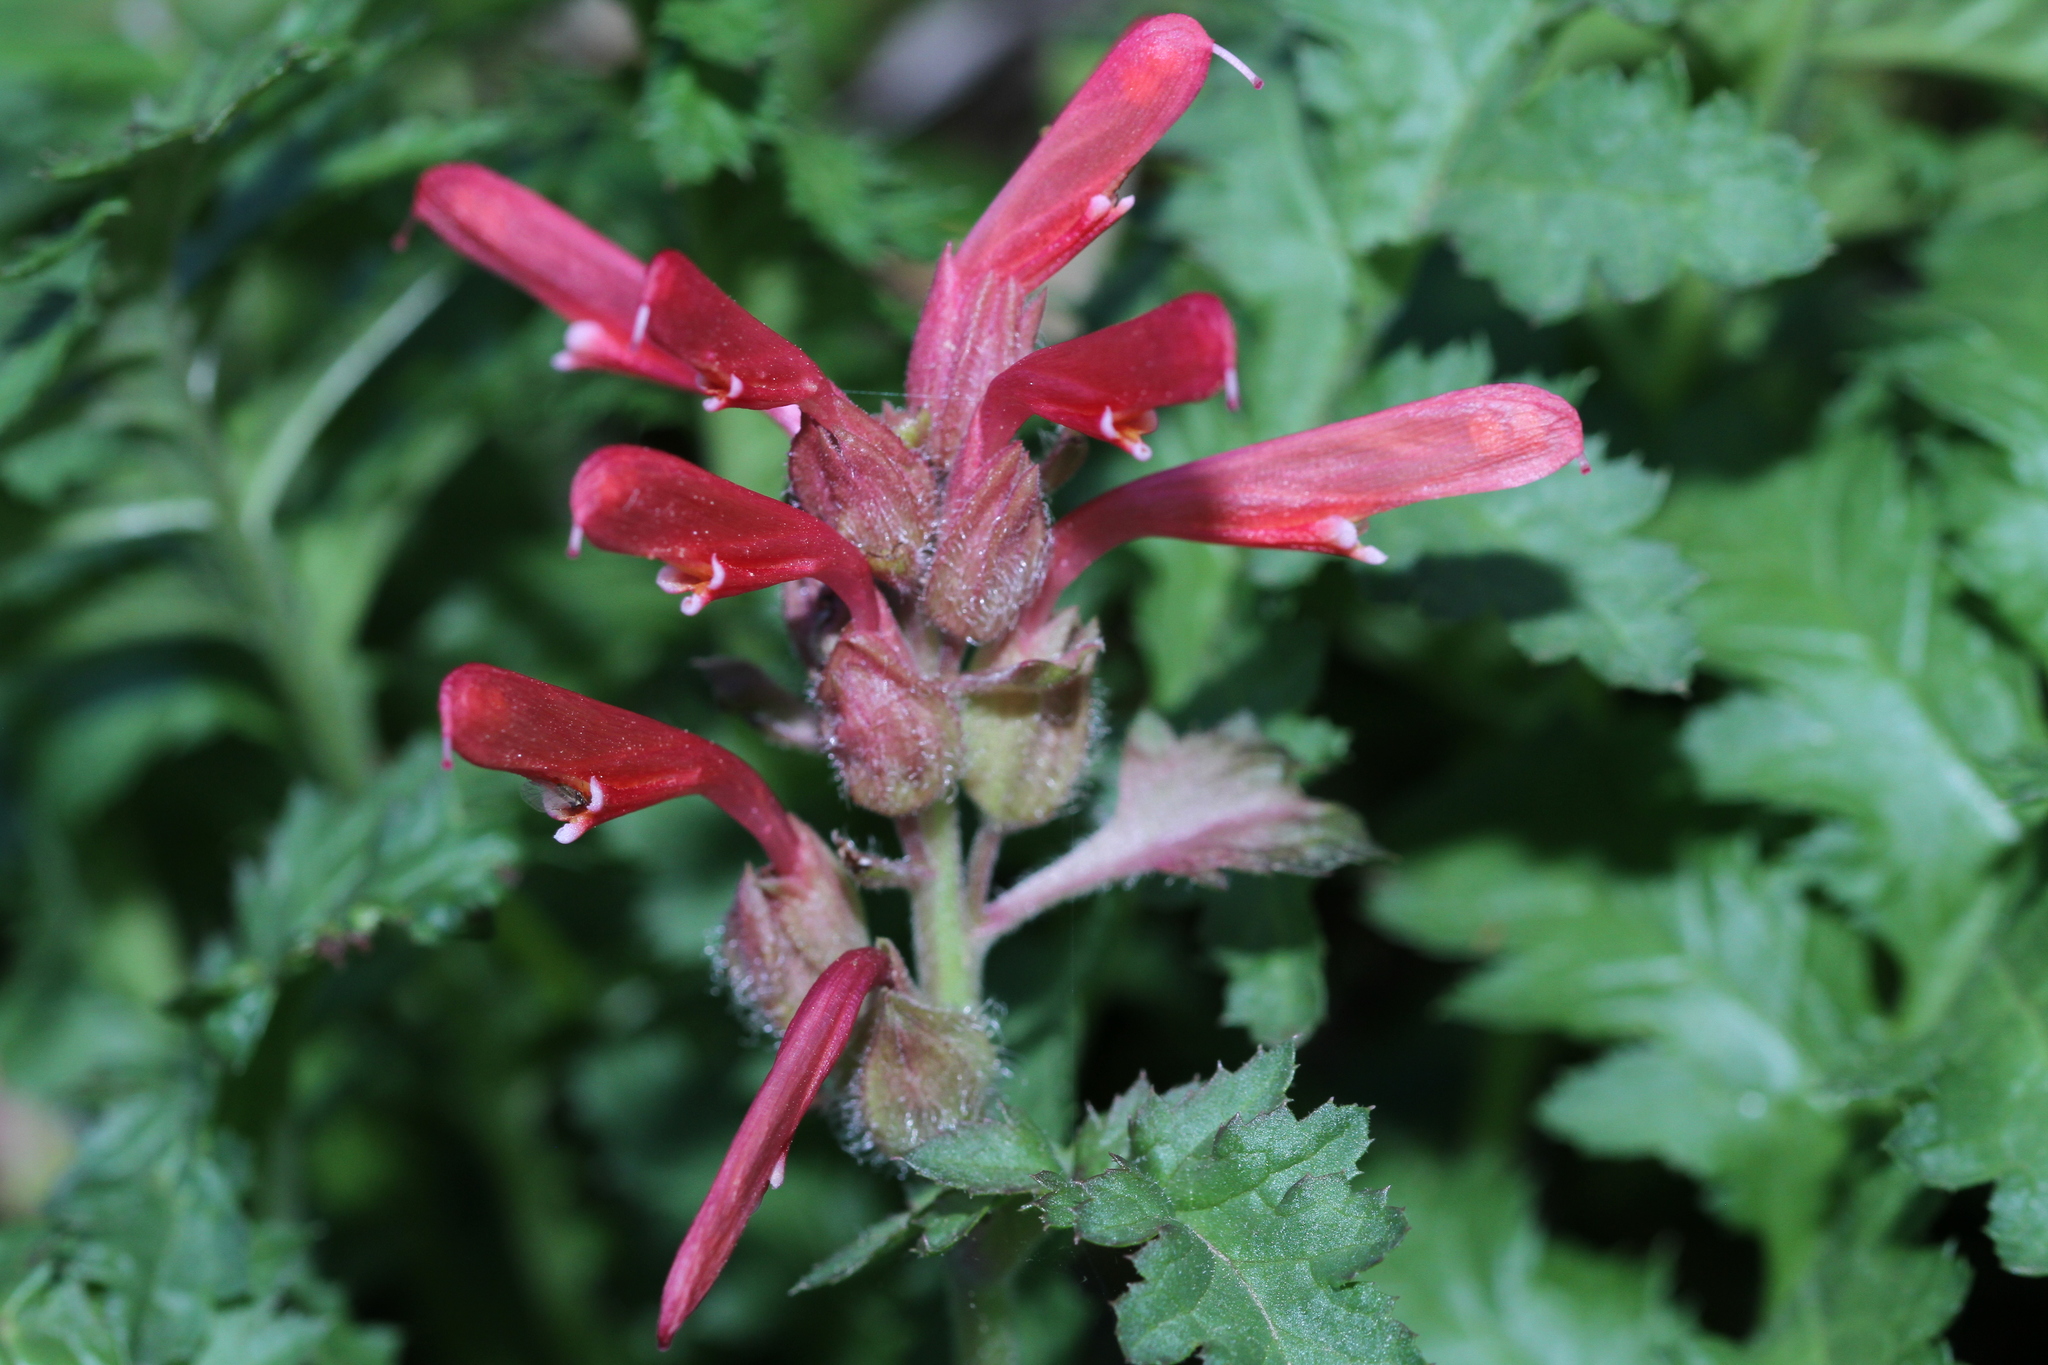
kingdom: Plantae
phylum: Tracheophyta
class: Magnoliopsida
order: Lamiales
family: Orobanchaceae
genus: Pedicularis
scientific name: Pedicularis densiflora
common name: Indian warrior
